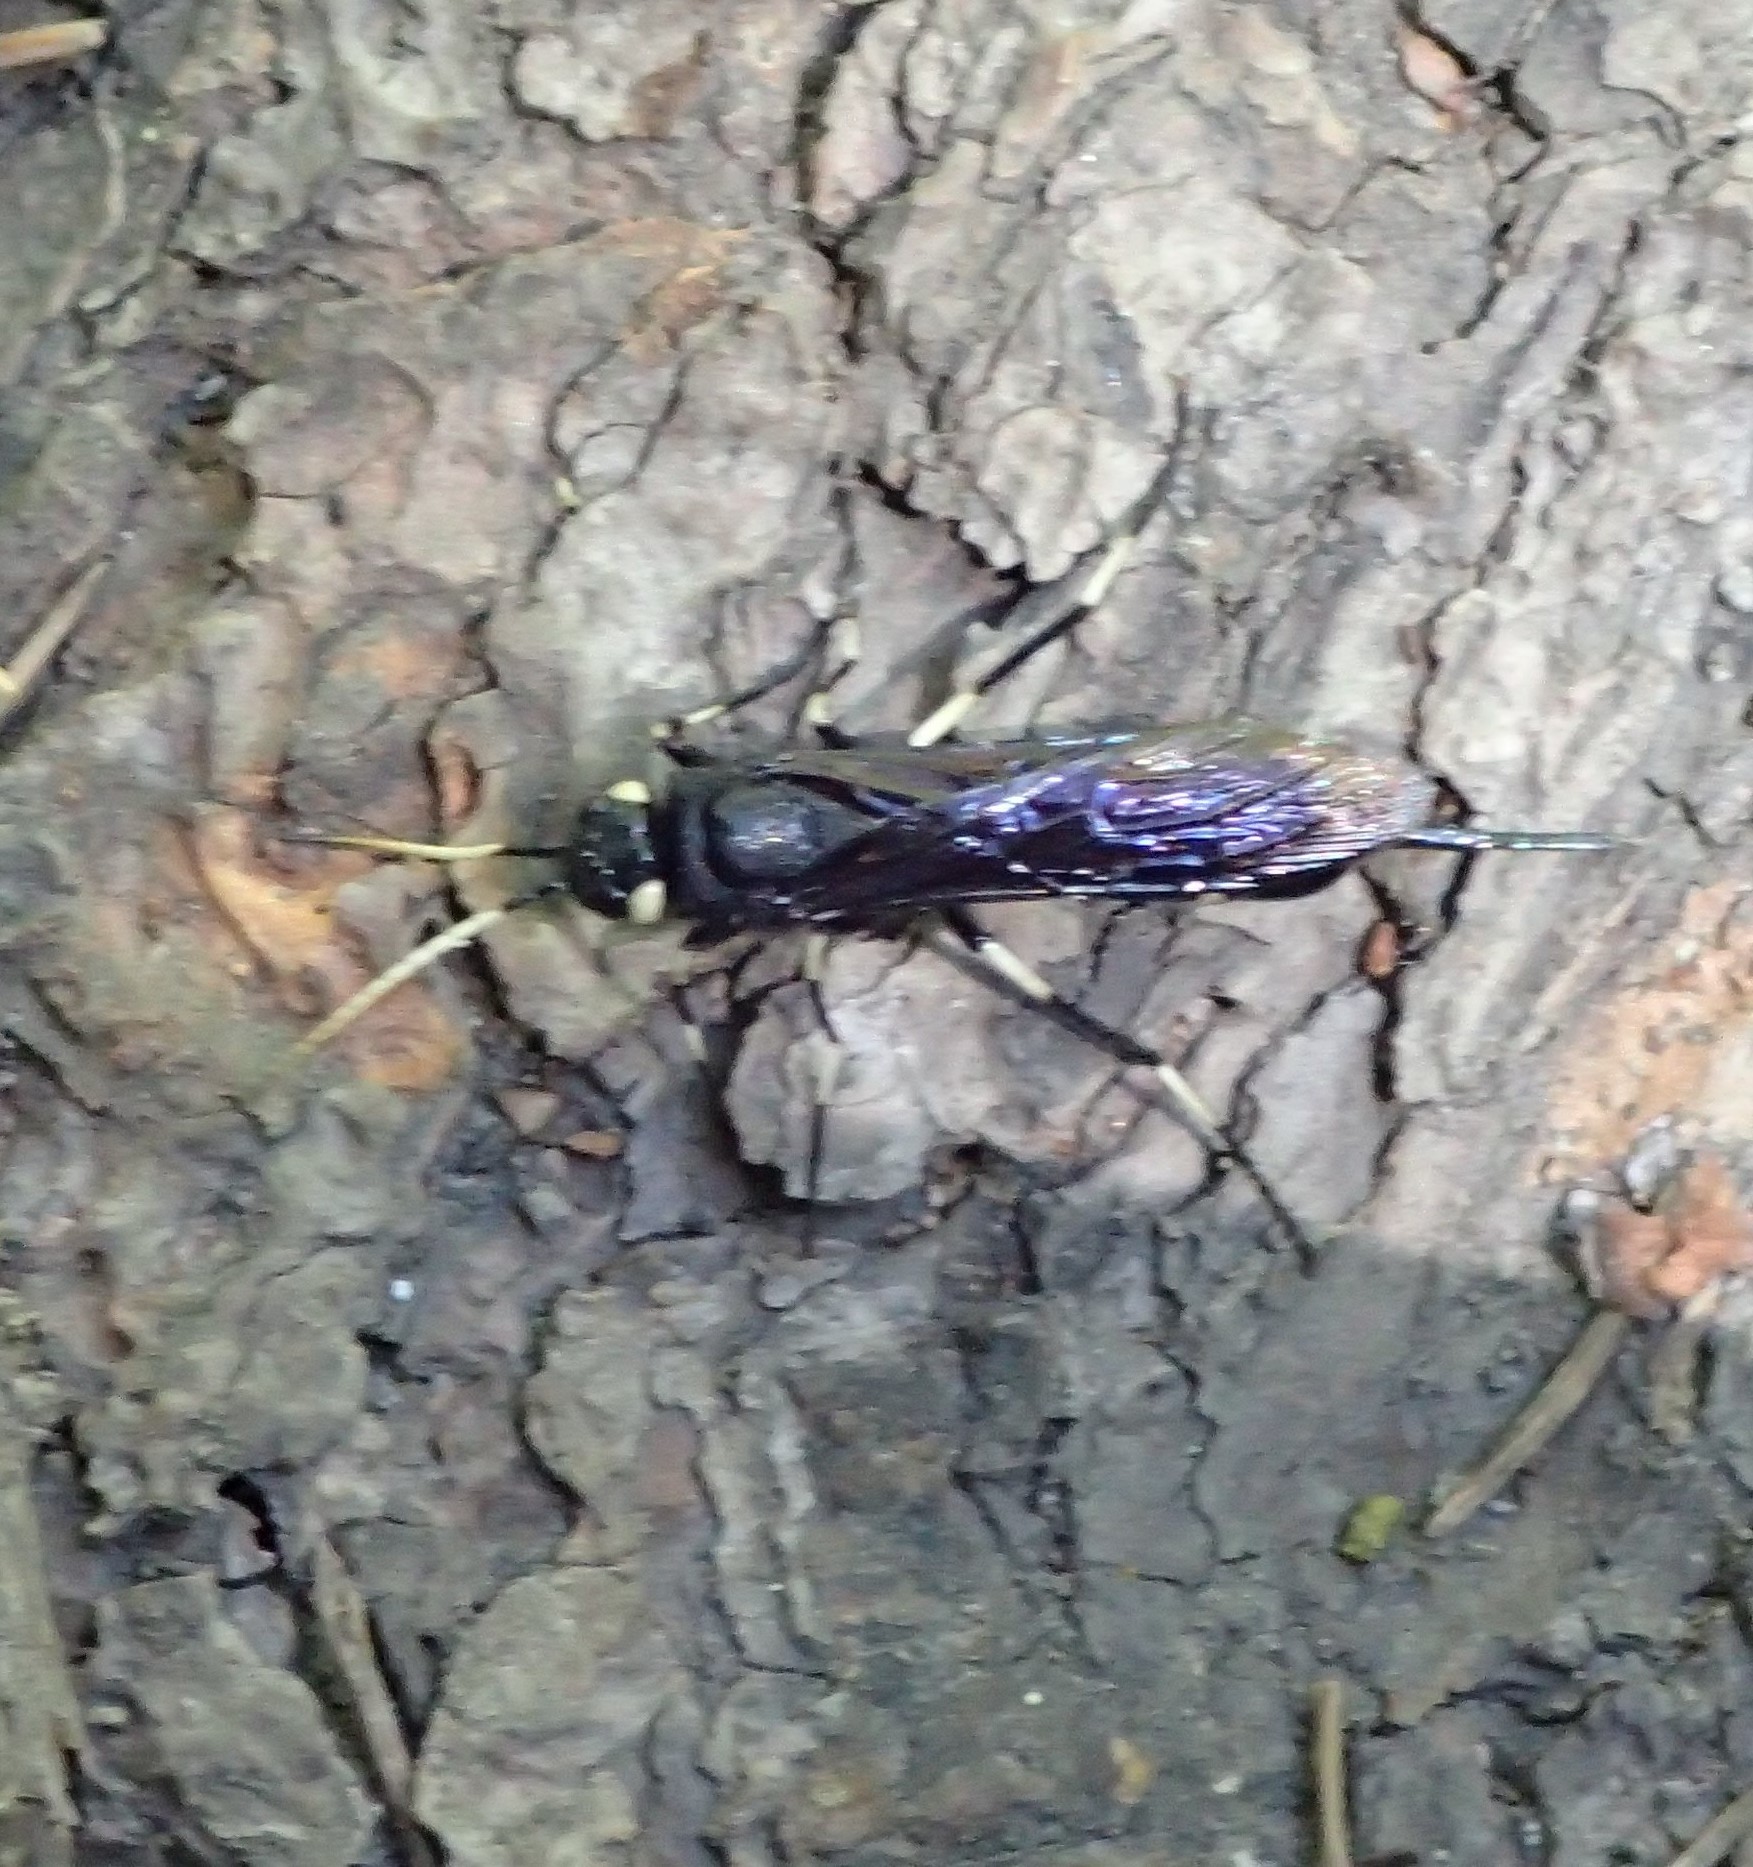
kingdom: Animalia
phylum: Arthropoda
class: Insecta
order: Hymenoptera
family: Siricidae
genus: Urocerus
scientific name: Urocerus albicornis
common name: White-horned horntail
